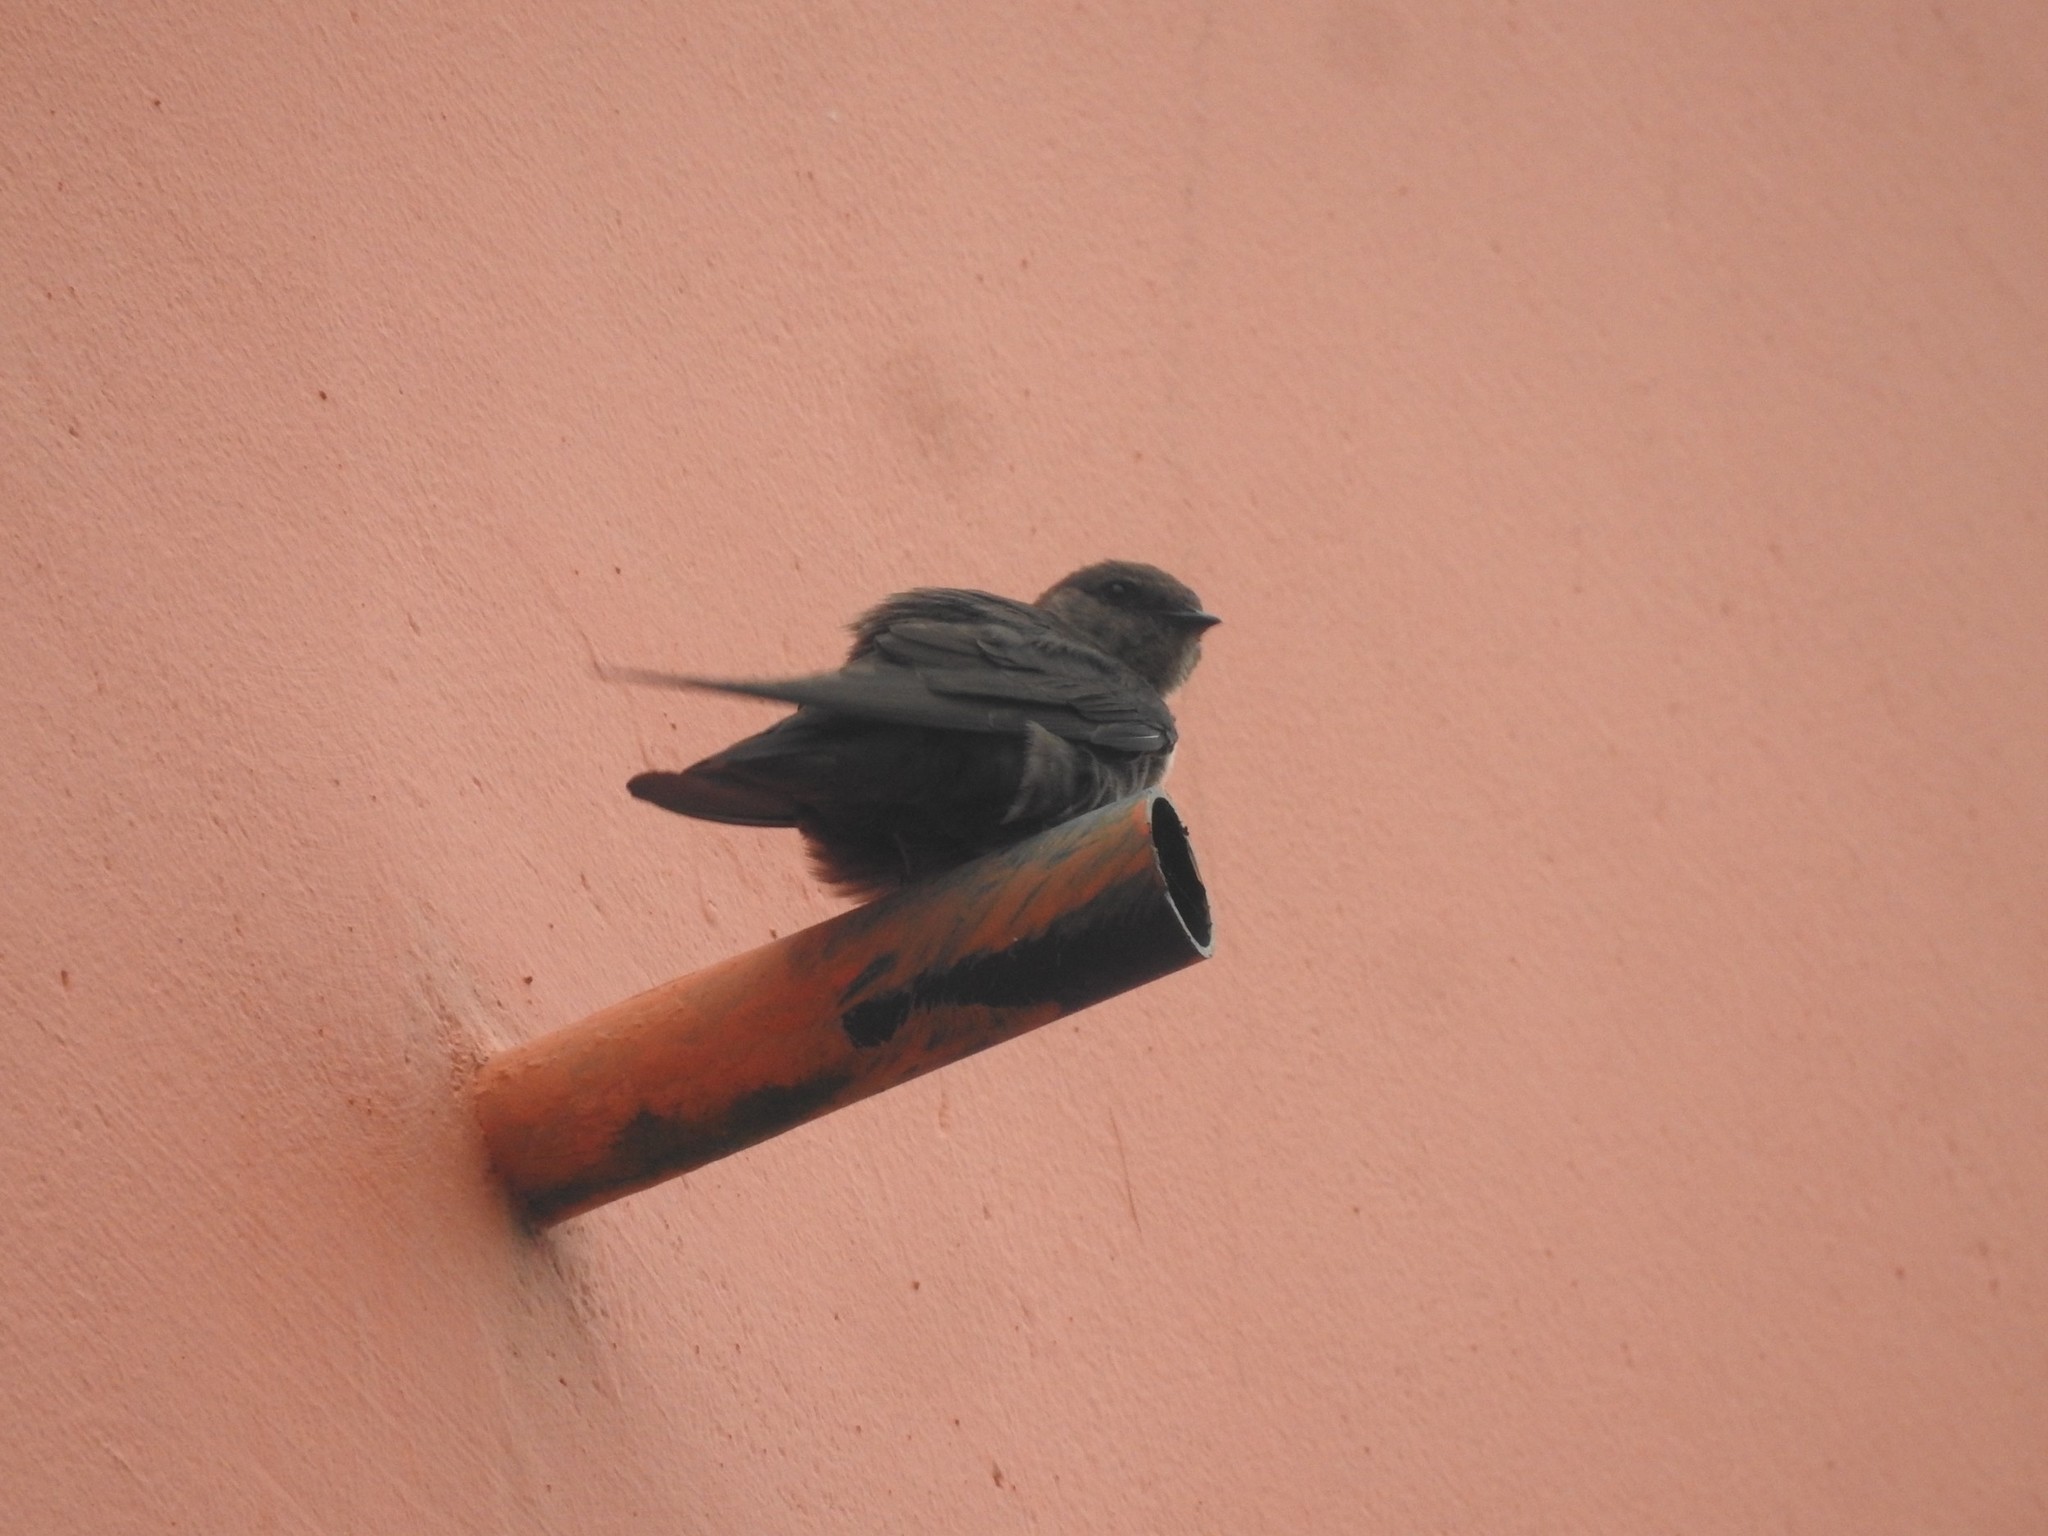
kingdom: Animalia
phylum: Chordata
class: Aves
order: Passeriformes
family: Hirundinidae
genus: Ptyonoprogne
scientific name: Ptyonoprogne concolor
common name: Dusky crag-martin
